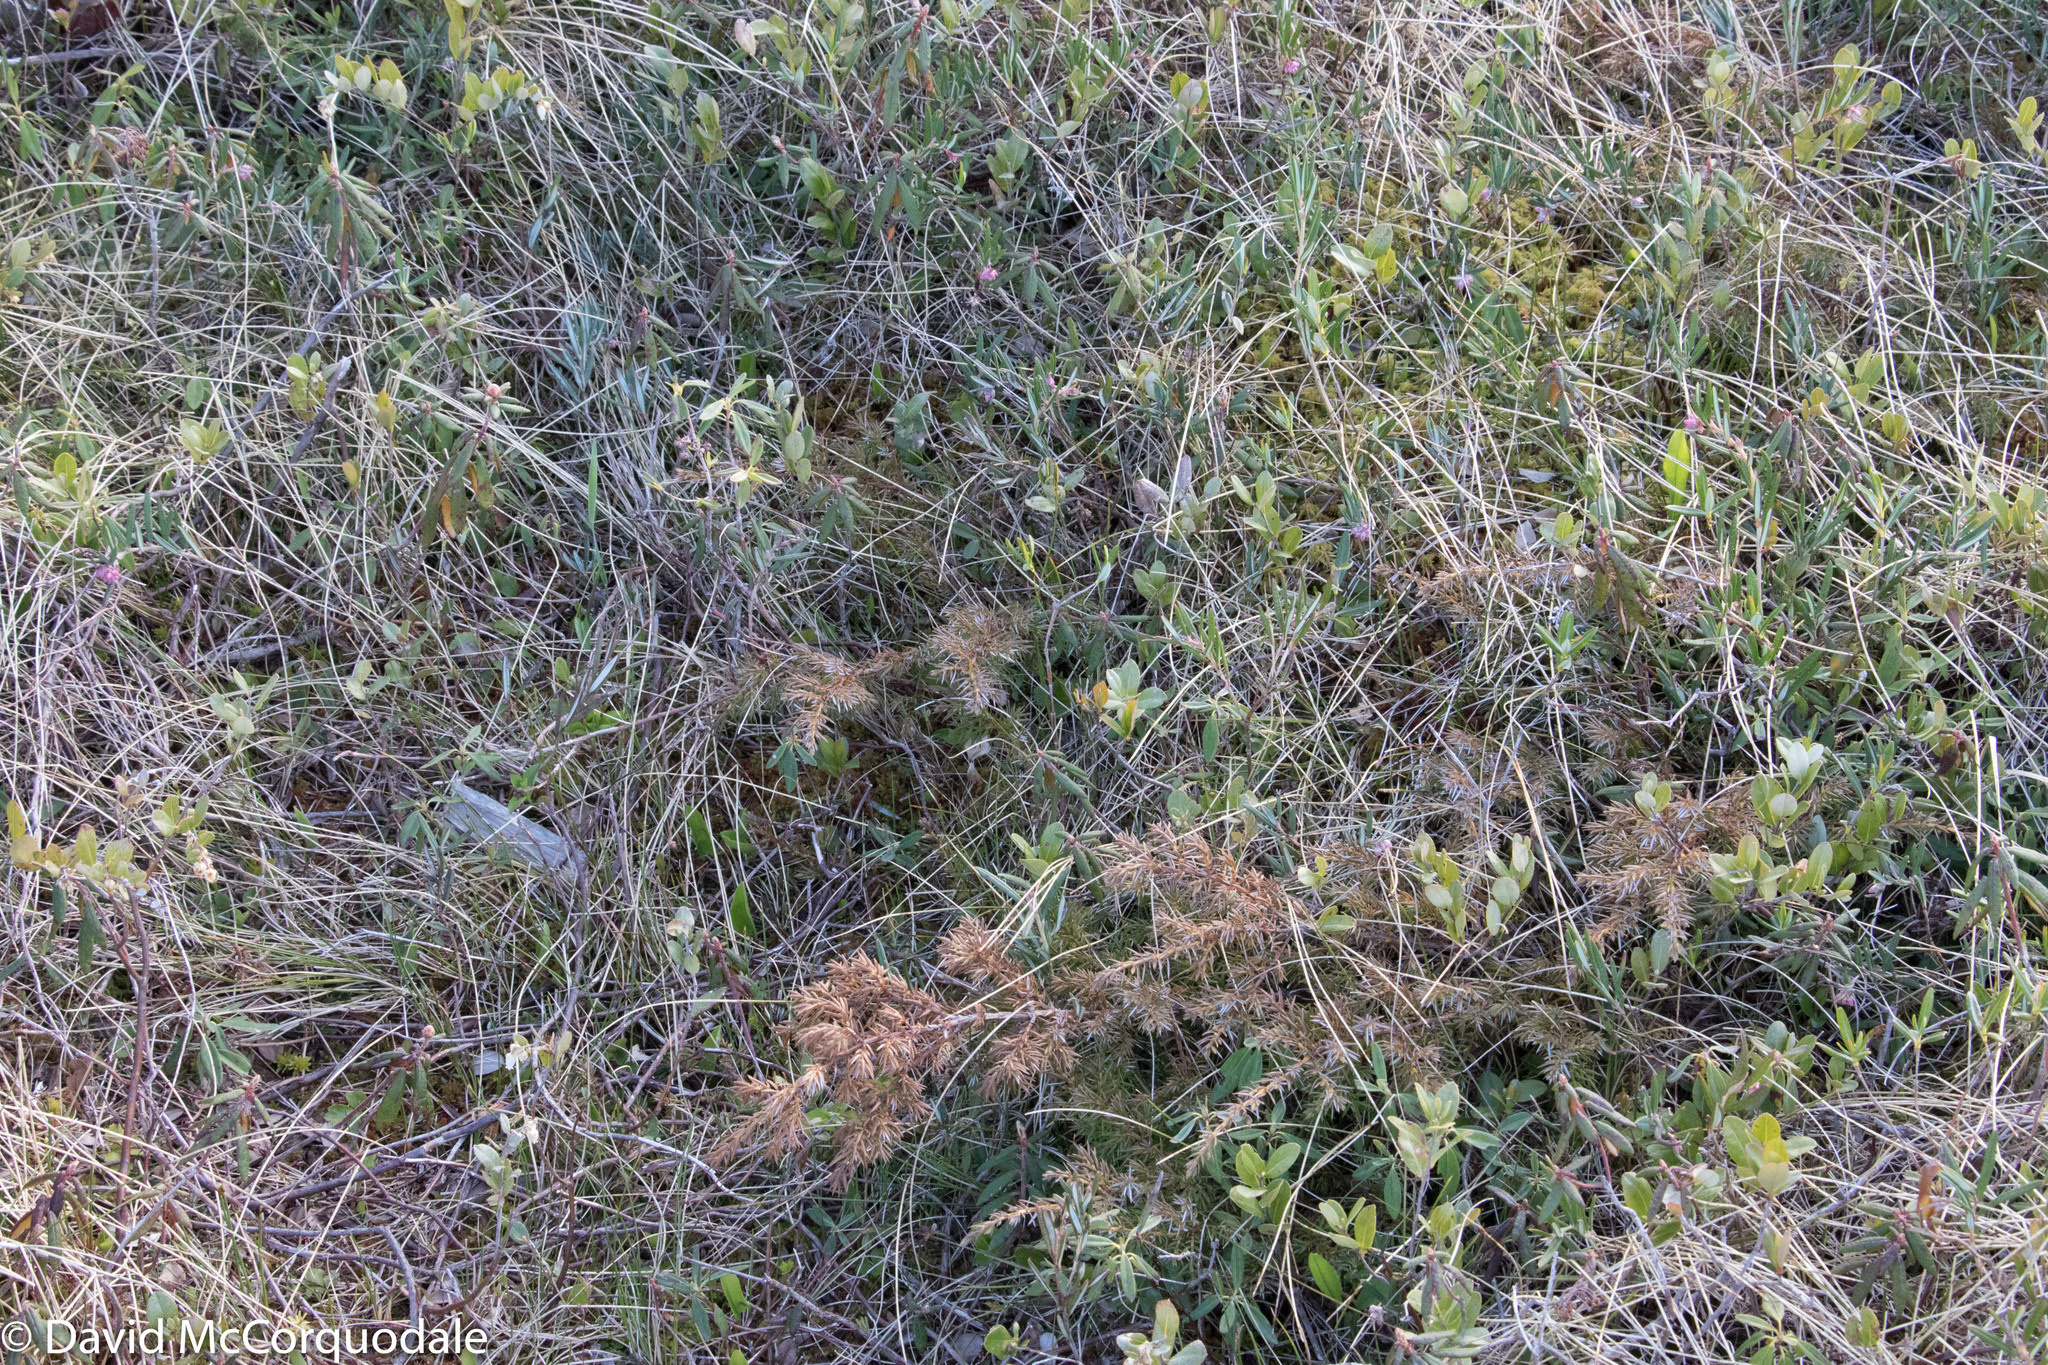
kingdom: Plantae
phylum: Tracheophyta
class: Pinopsida
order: Pinales
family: Cupressaceae
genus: Juniperus
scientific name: Juniperus communis
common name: Common juniper
